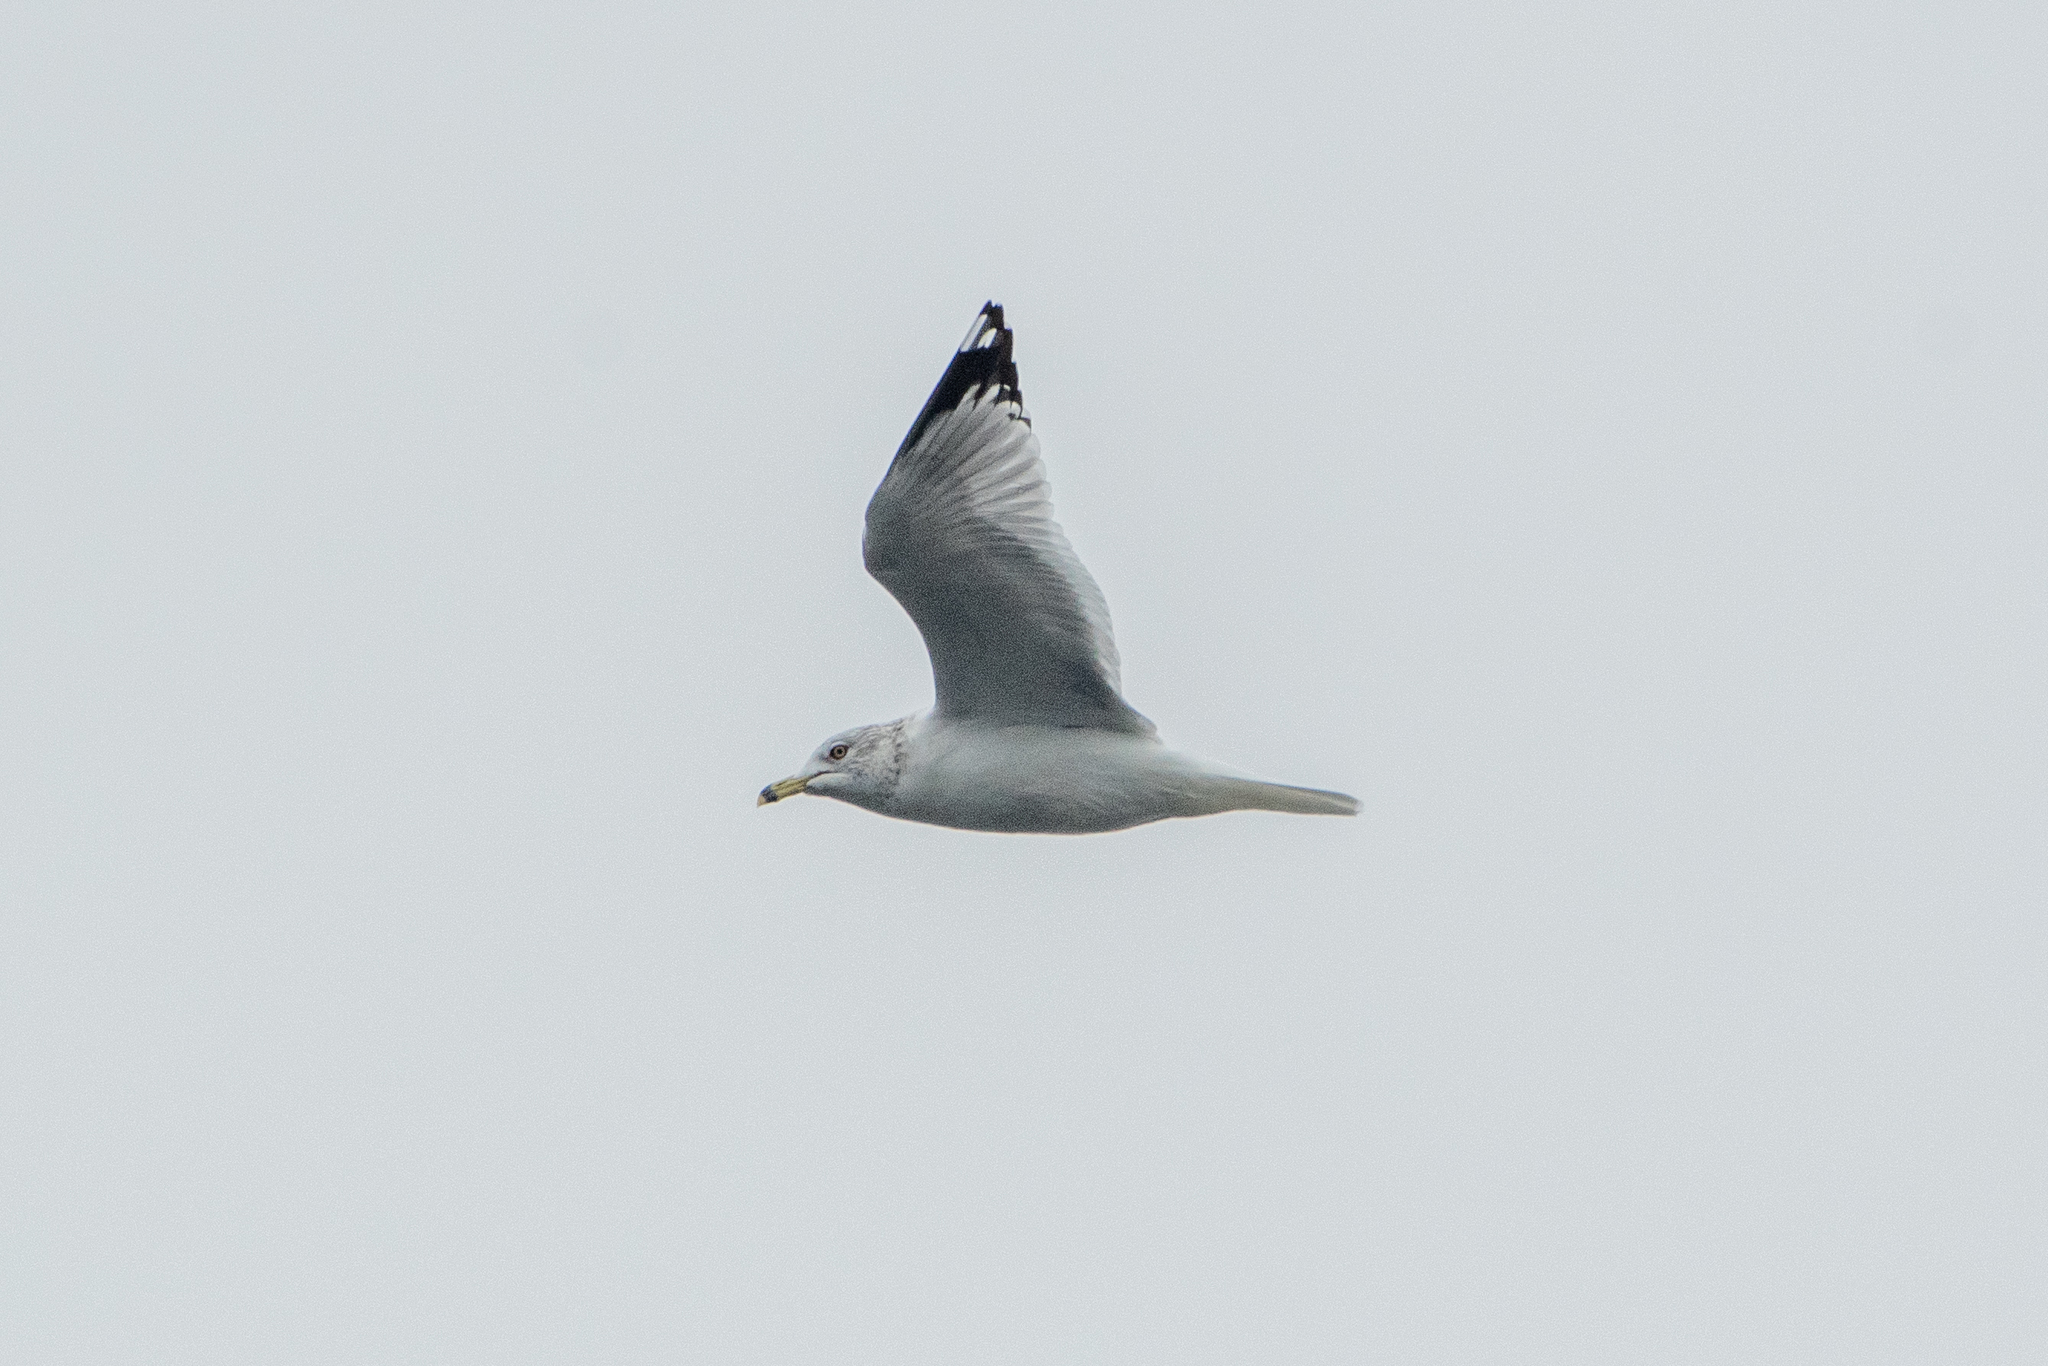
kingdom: Animalia
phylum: Chordata
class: Aves
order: Charadriiformes
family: Laridae
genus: Larus
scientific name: Larus delawarensis
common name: Ring-billed gull
